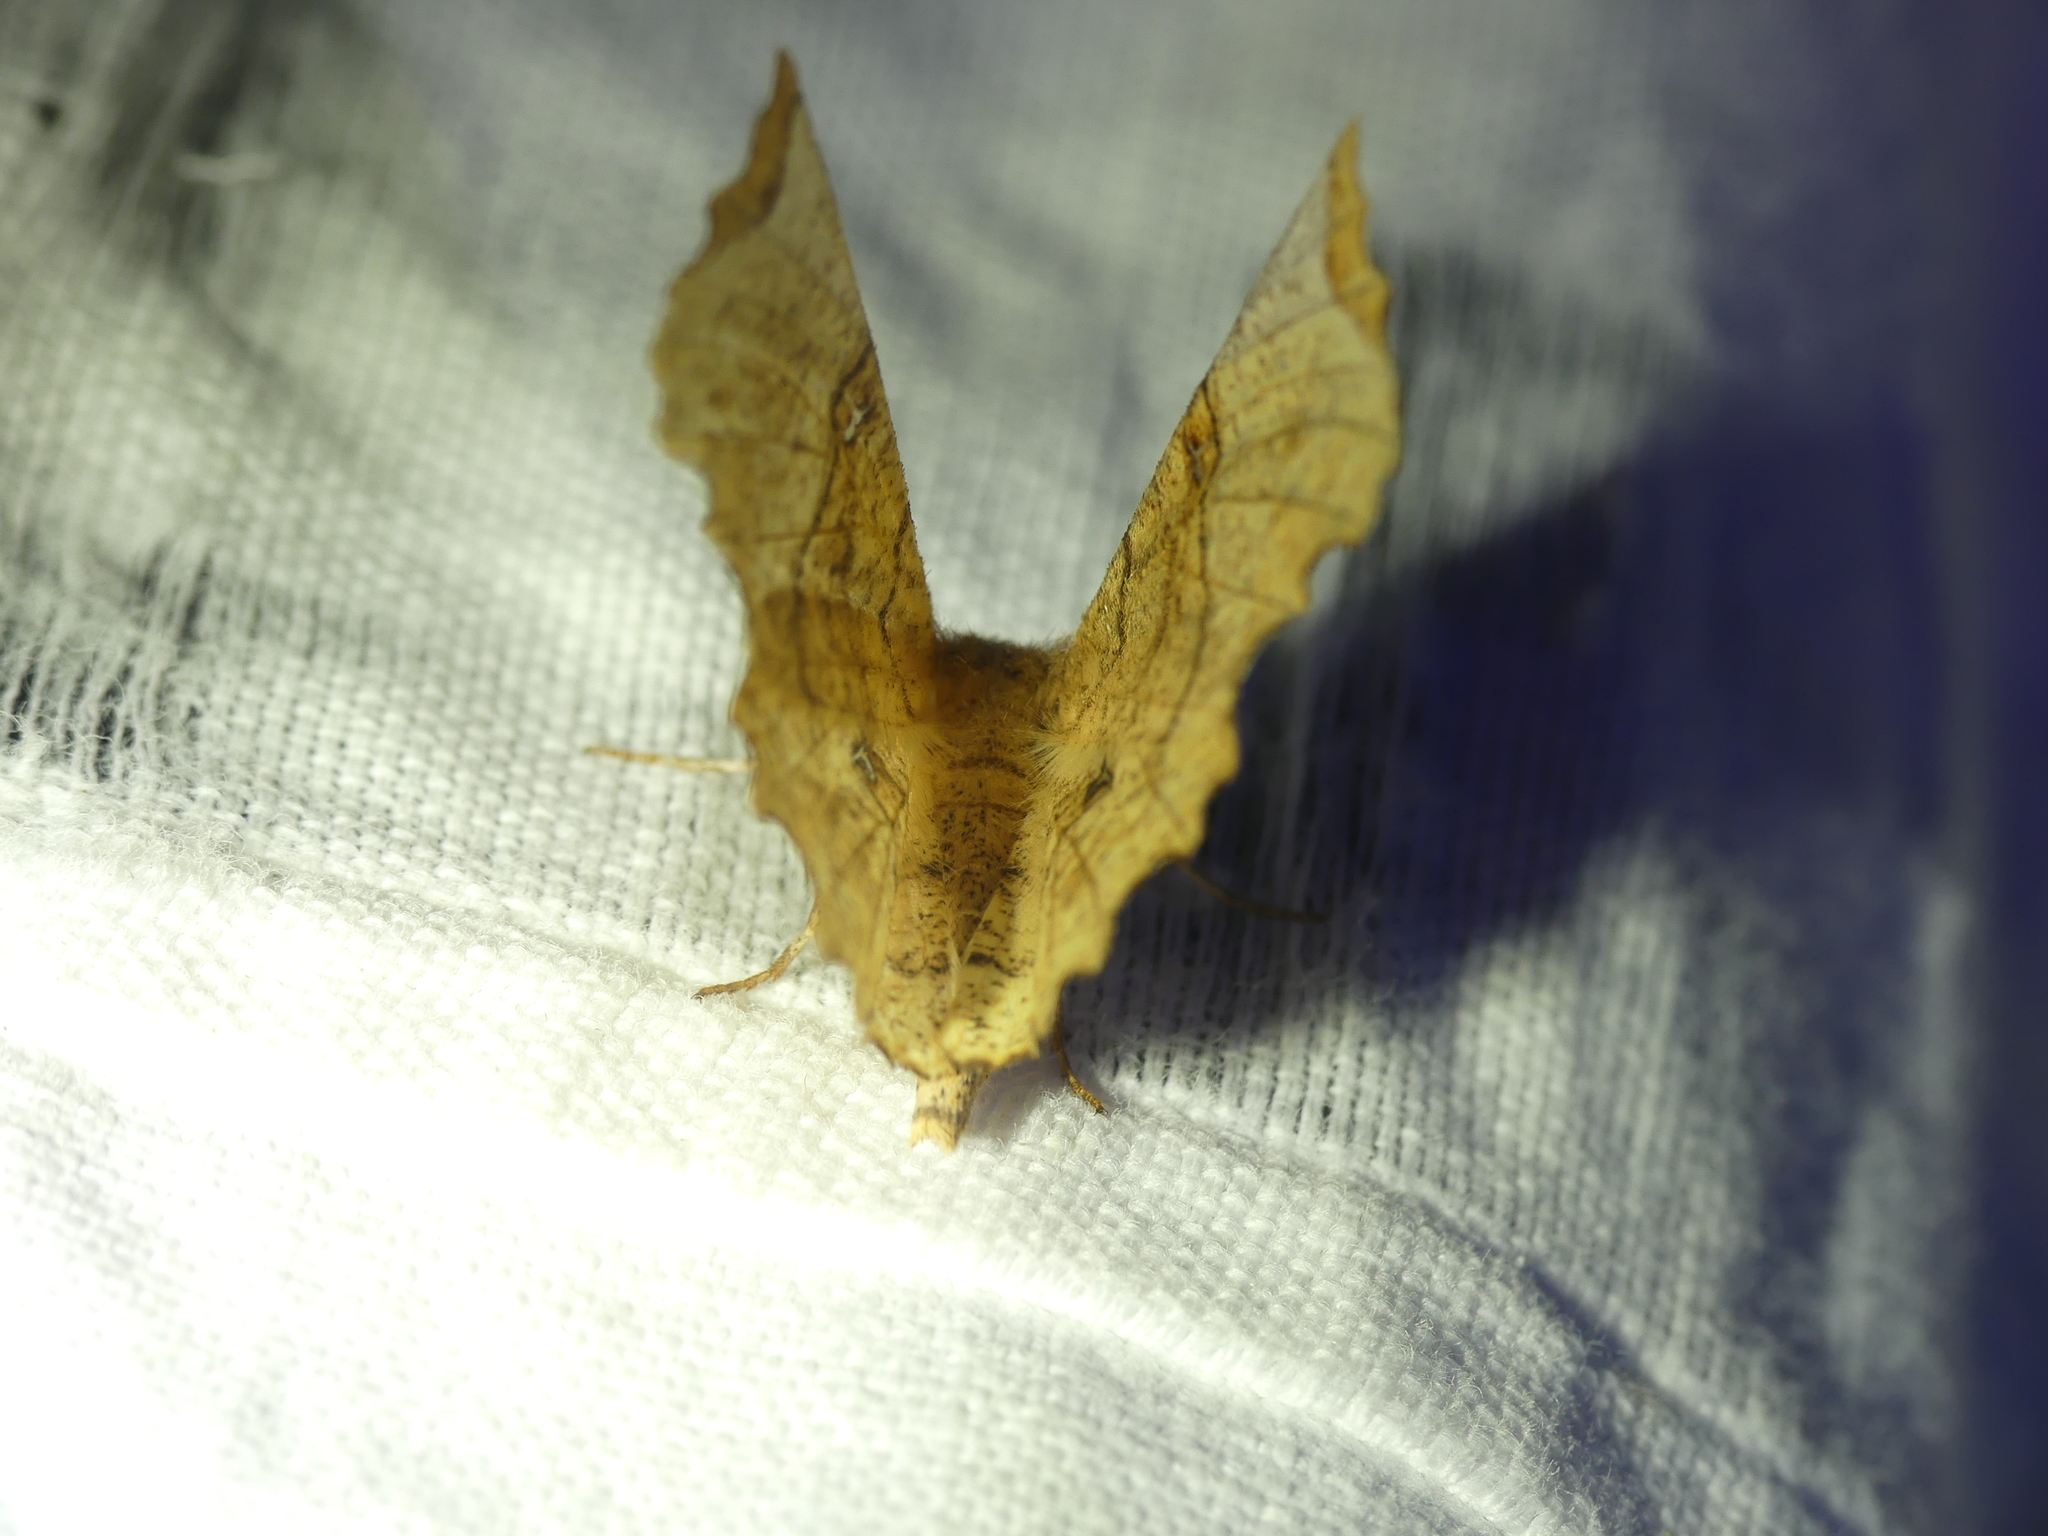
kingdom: Animalia
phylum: Arthropoda
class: Insecta
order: Lepidoptera
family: Geometridae
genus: Selenia
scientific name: Selenia lunularia
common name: Lunar thorn
